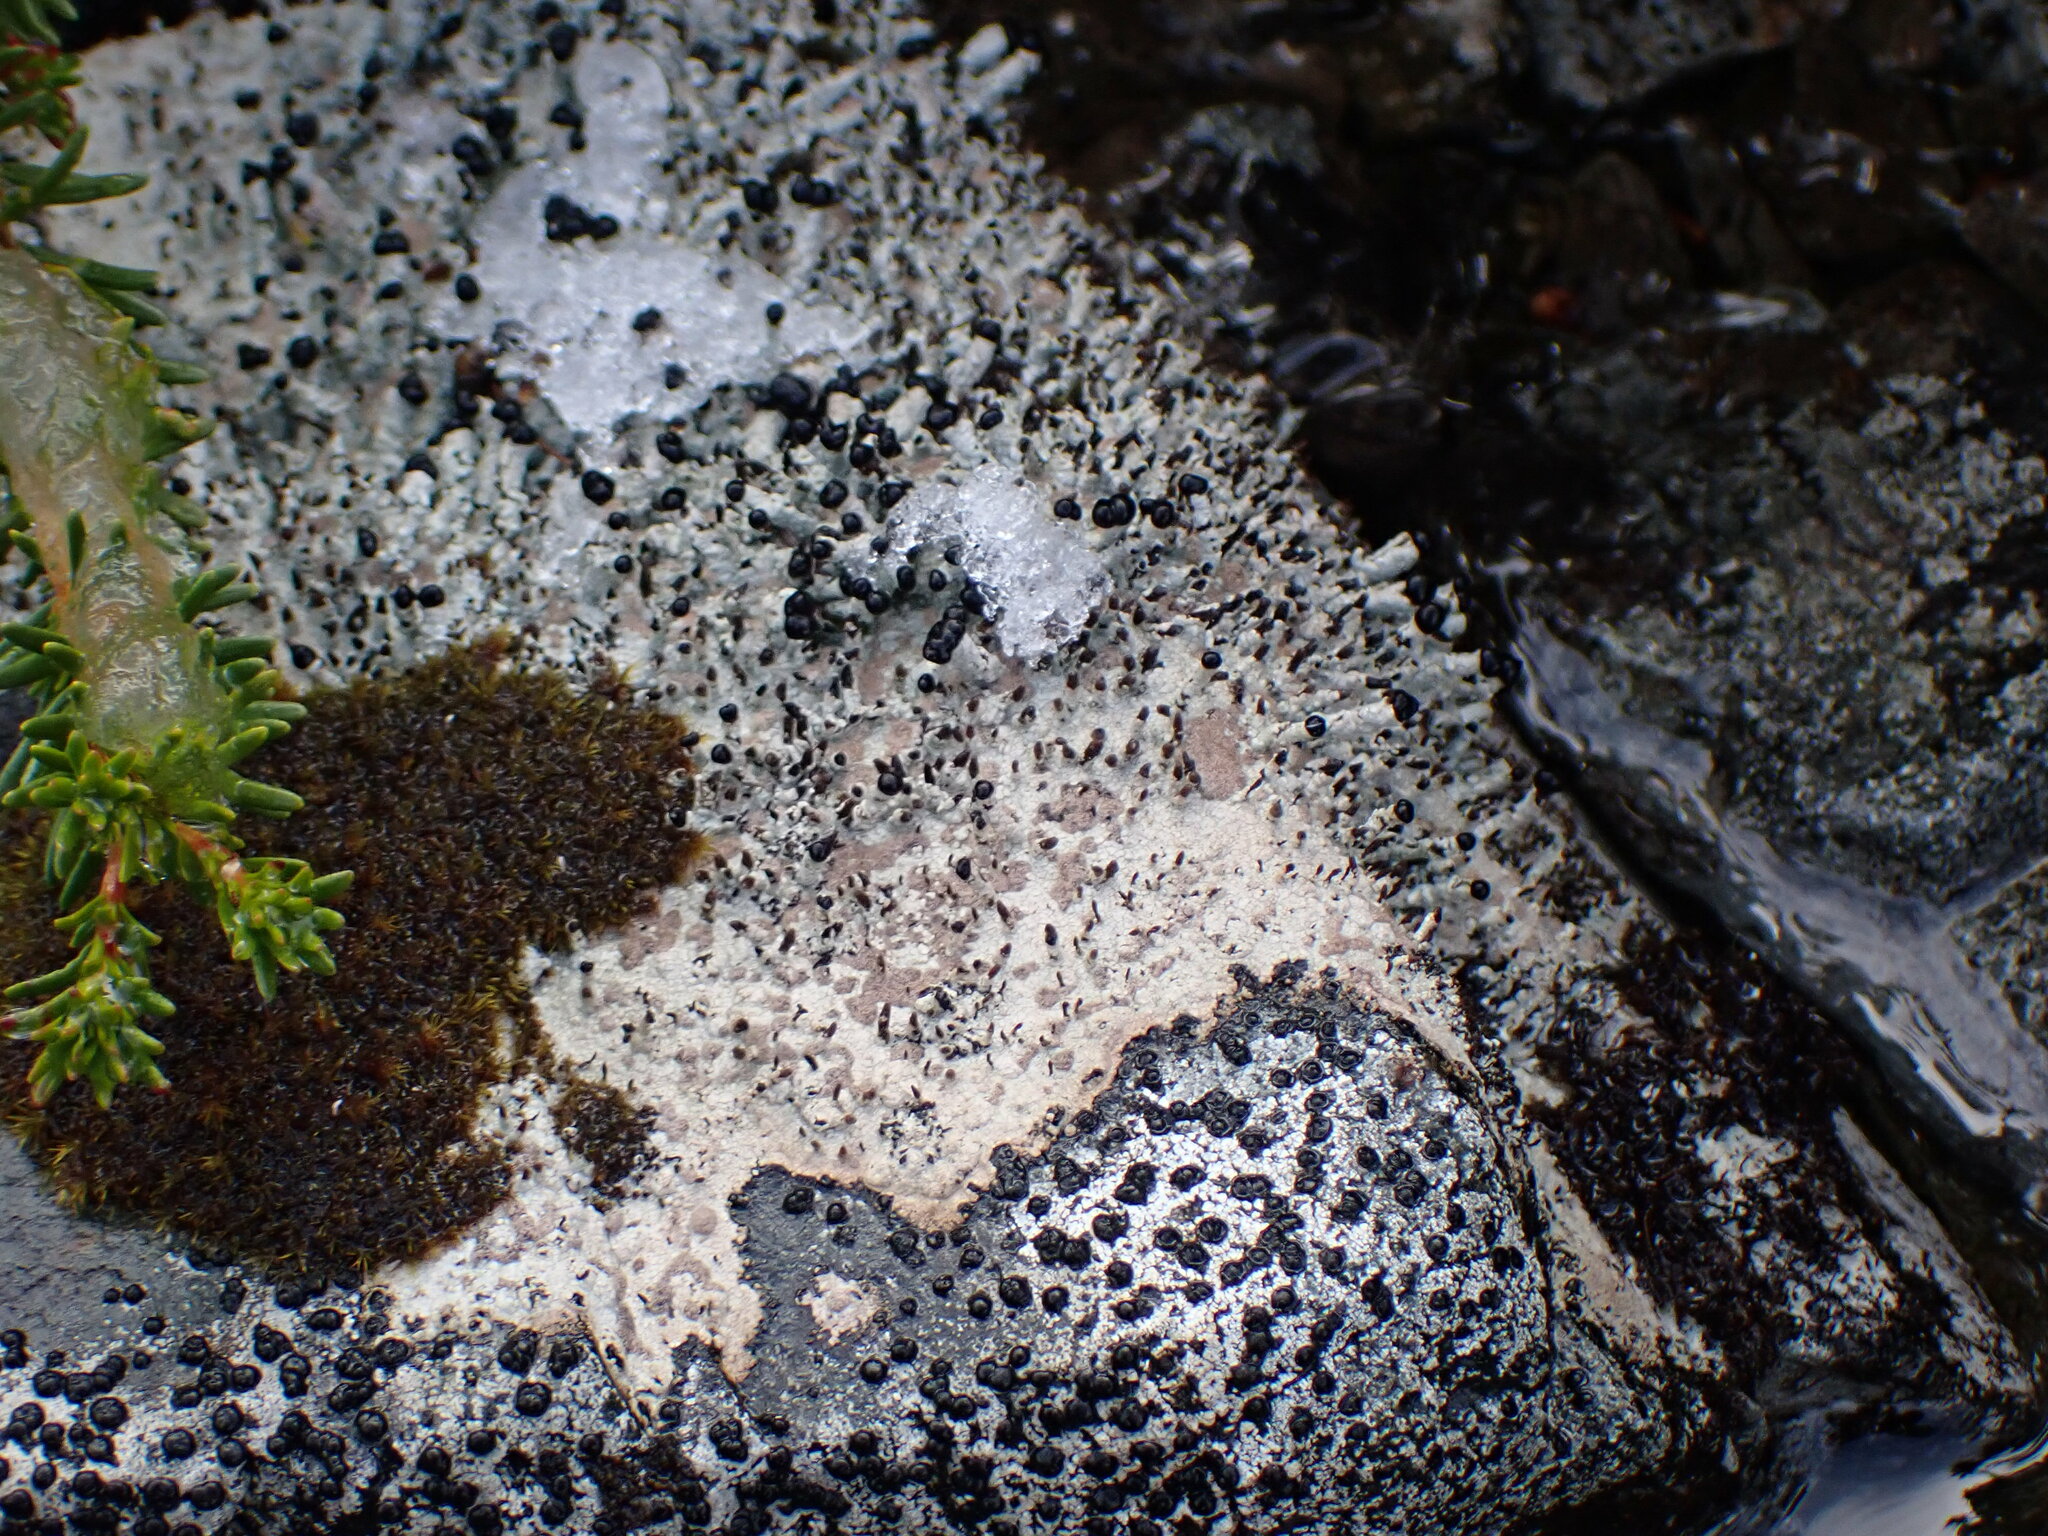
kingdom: Fungi
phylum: Ascomycota
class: Lecanoromycetes
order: Lecanorales
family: Cladoniaceae
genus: Pilophorus
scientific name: Pilophorus nigricaulis
